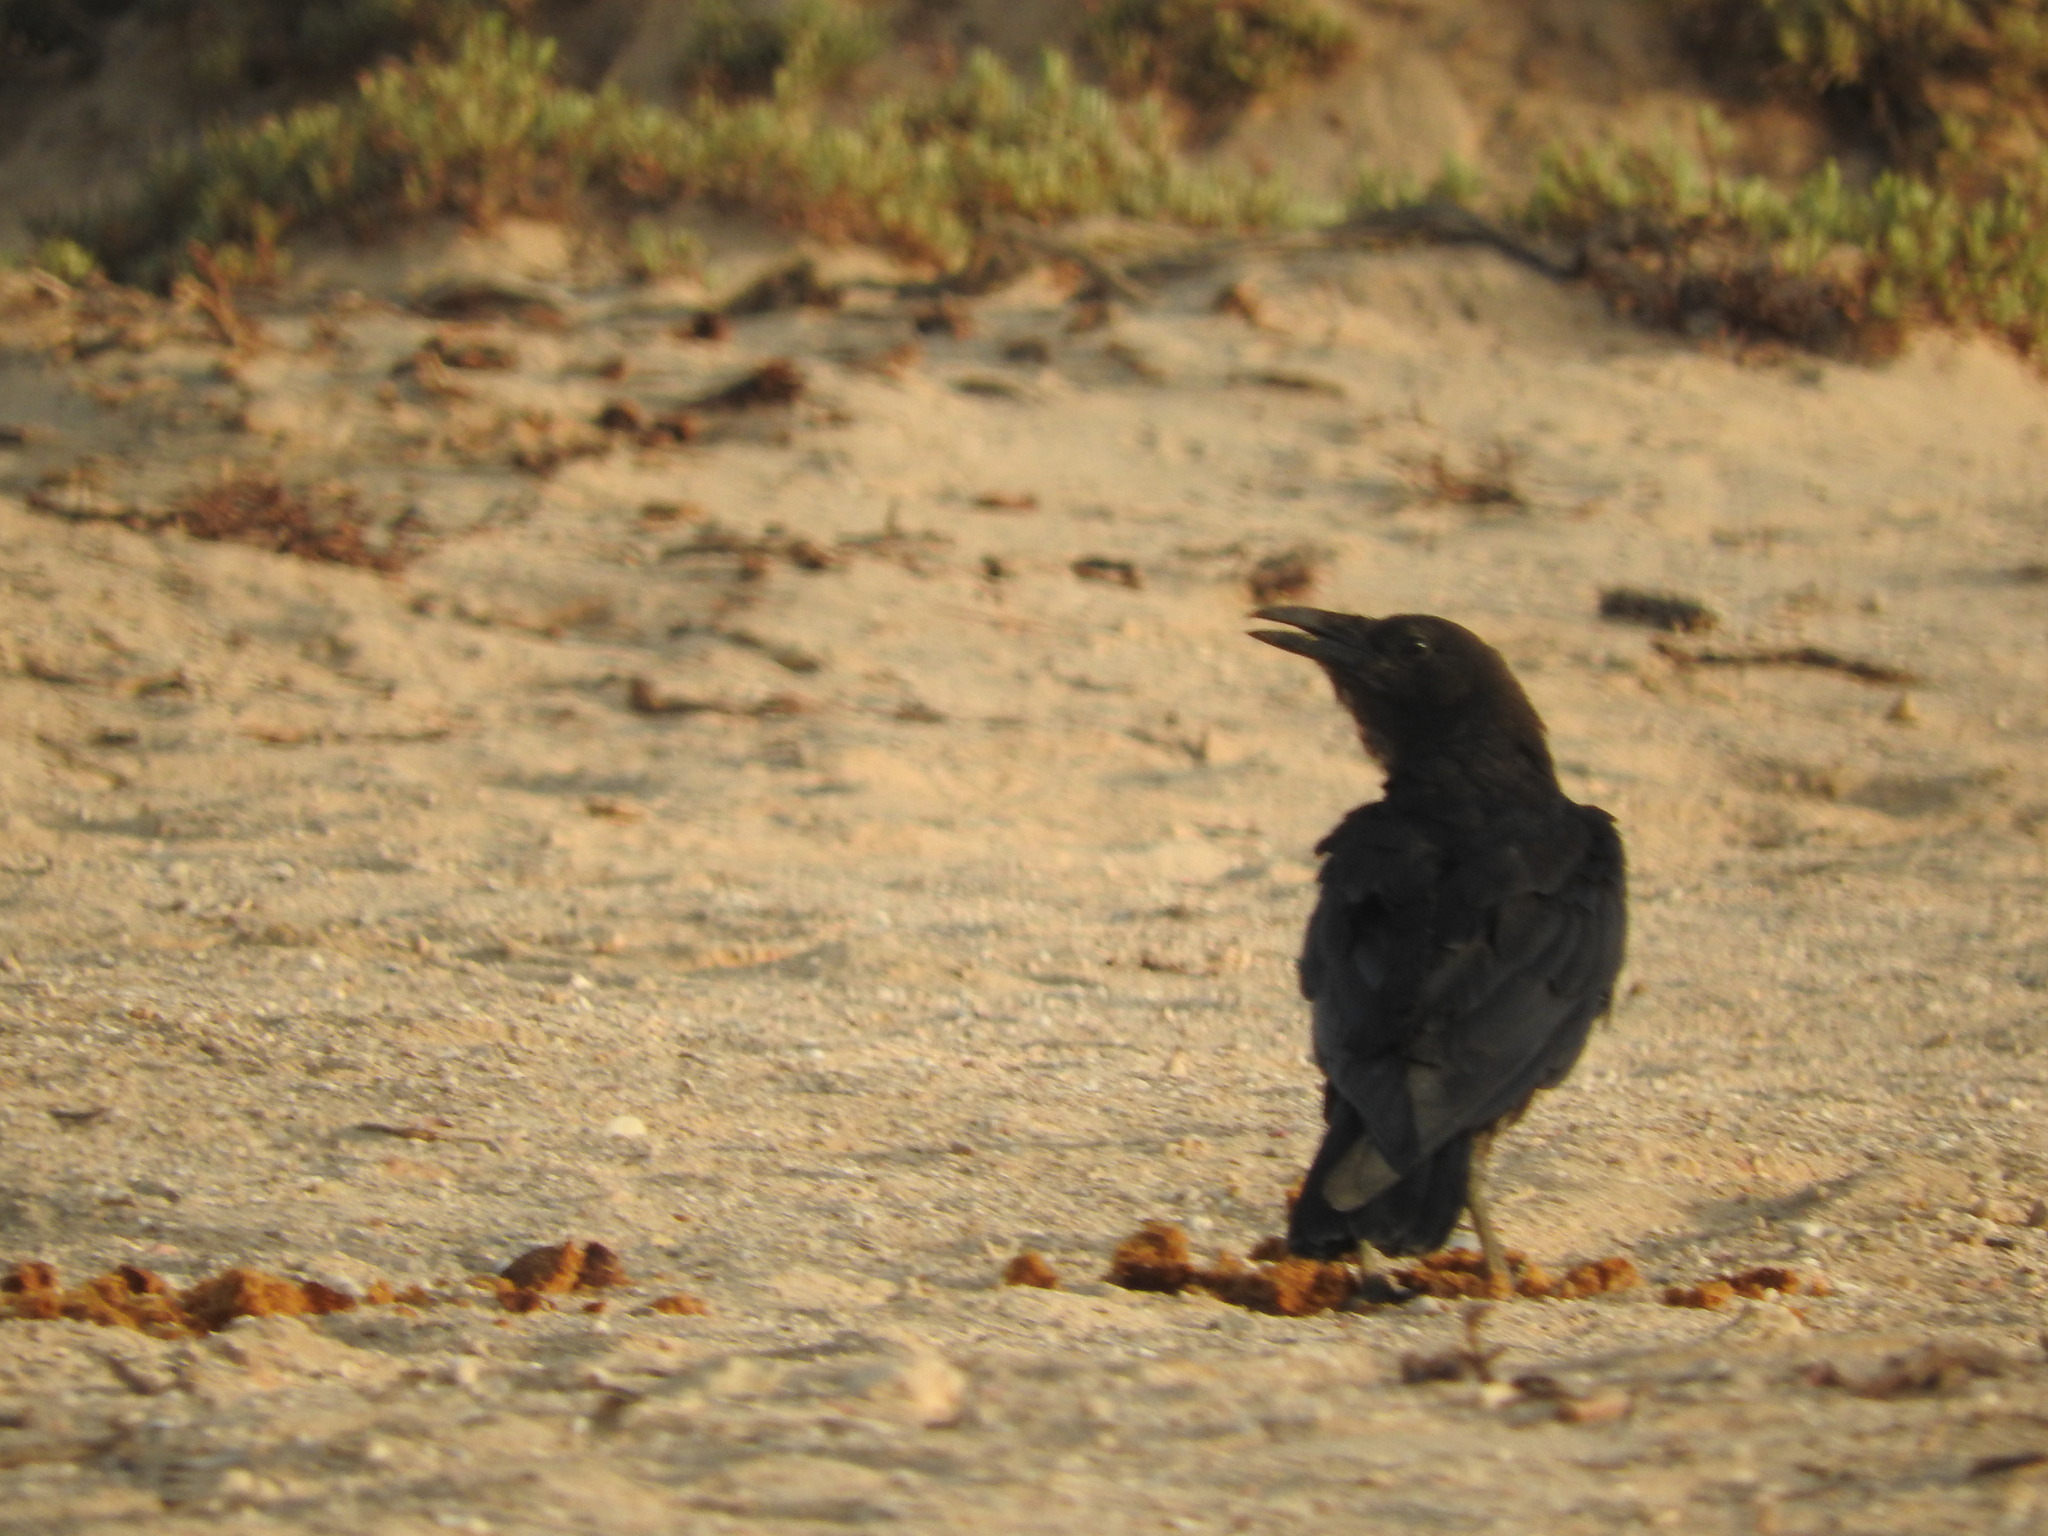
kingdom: Animalia
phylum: Chordata
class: Aves
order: Passeriformes
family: Corvidae
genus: Corvus
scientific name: Corvus ruficollis
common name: Brown-necked raven
